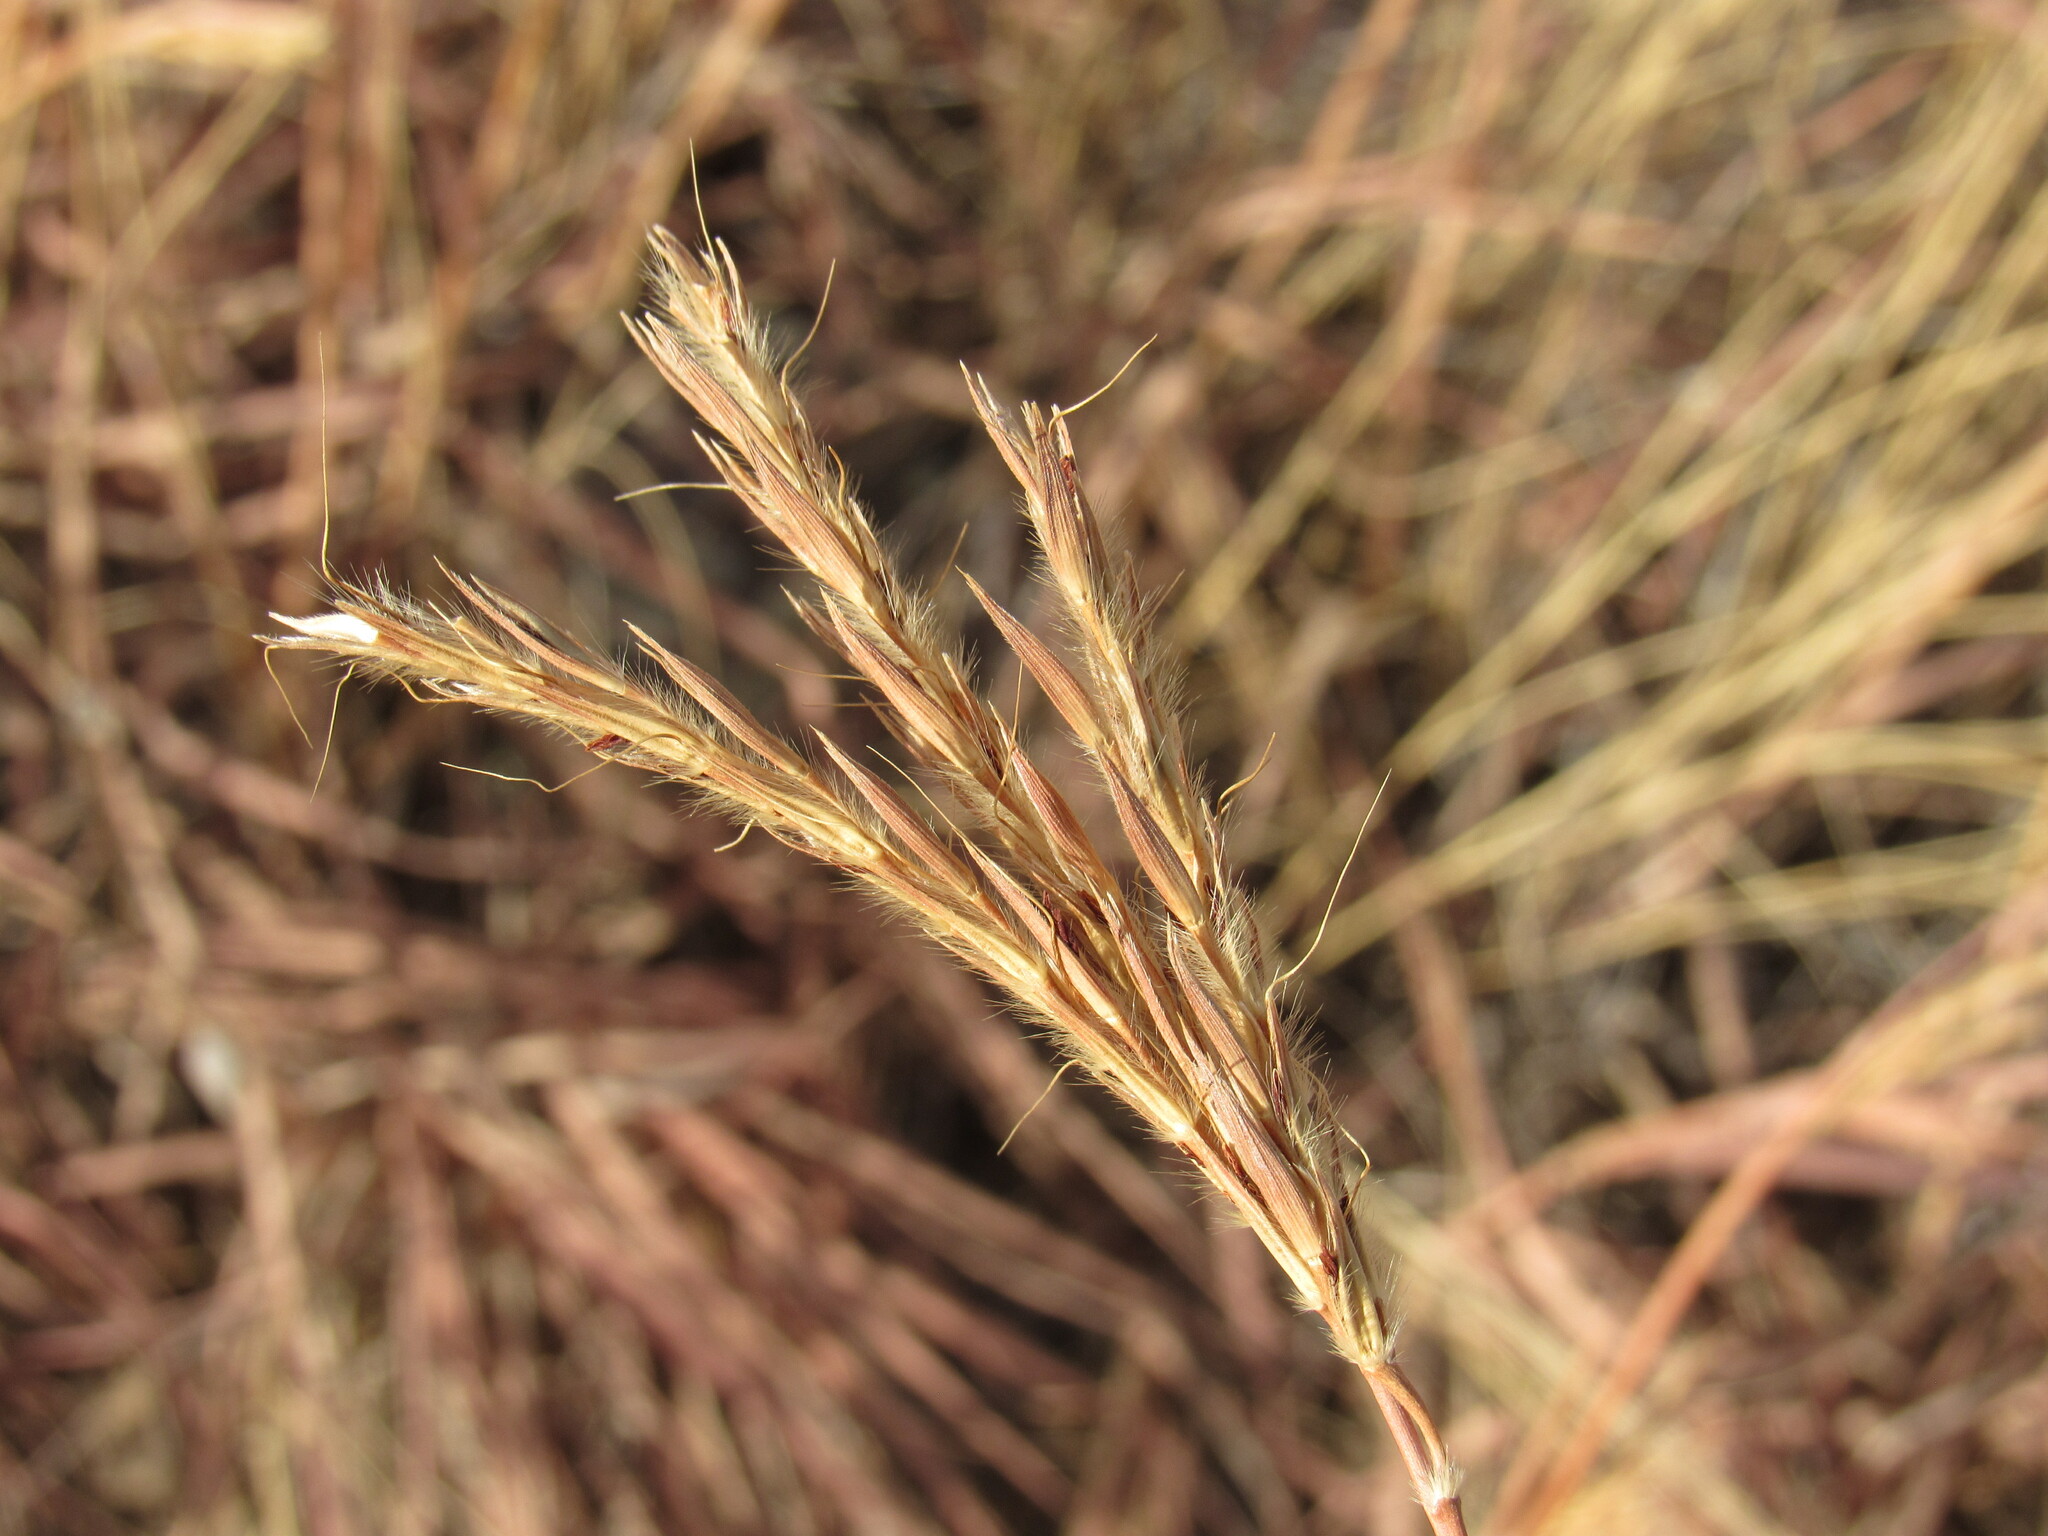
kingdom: Plantae
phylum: Tracheophyta
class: Liliopsida
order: Poales
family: Poaceae
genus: Andropogon
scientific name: Andropogon gerardi
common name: Big bluestem
